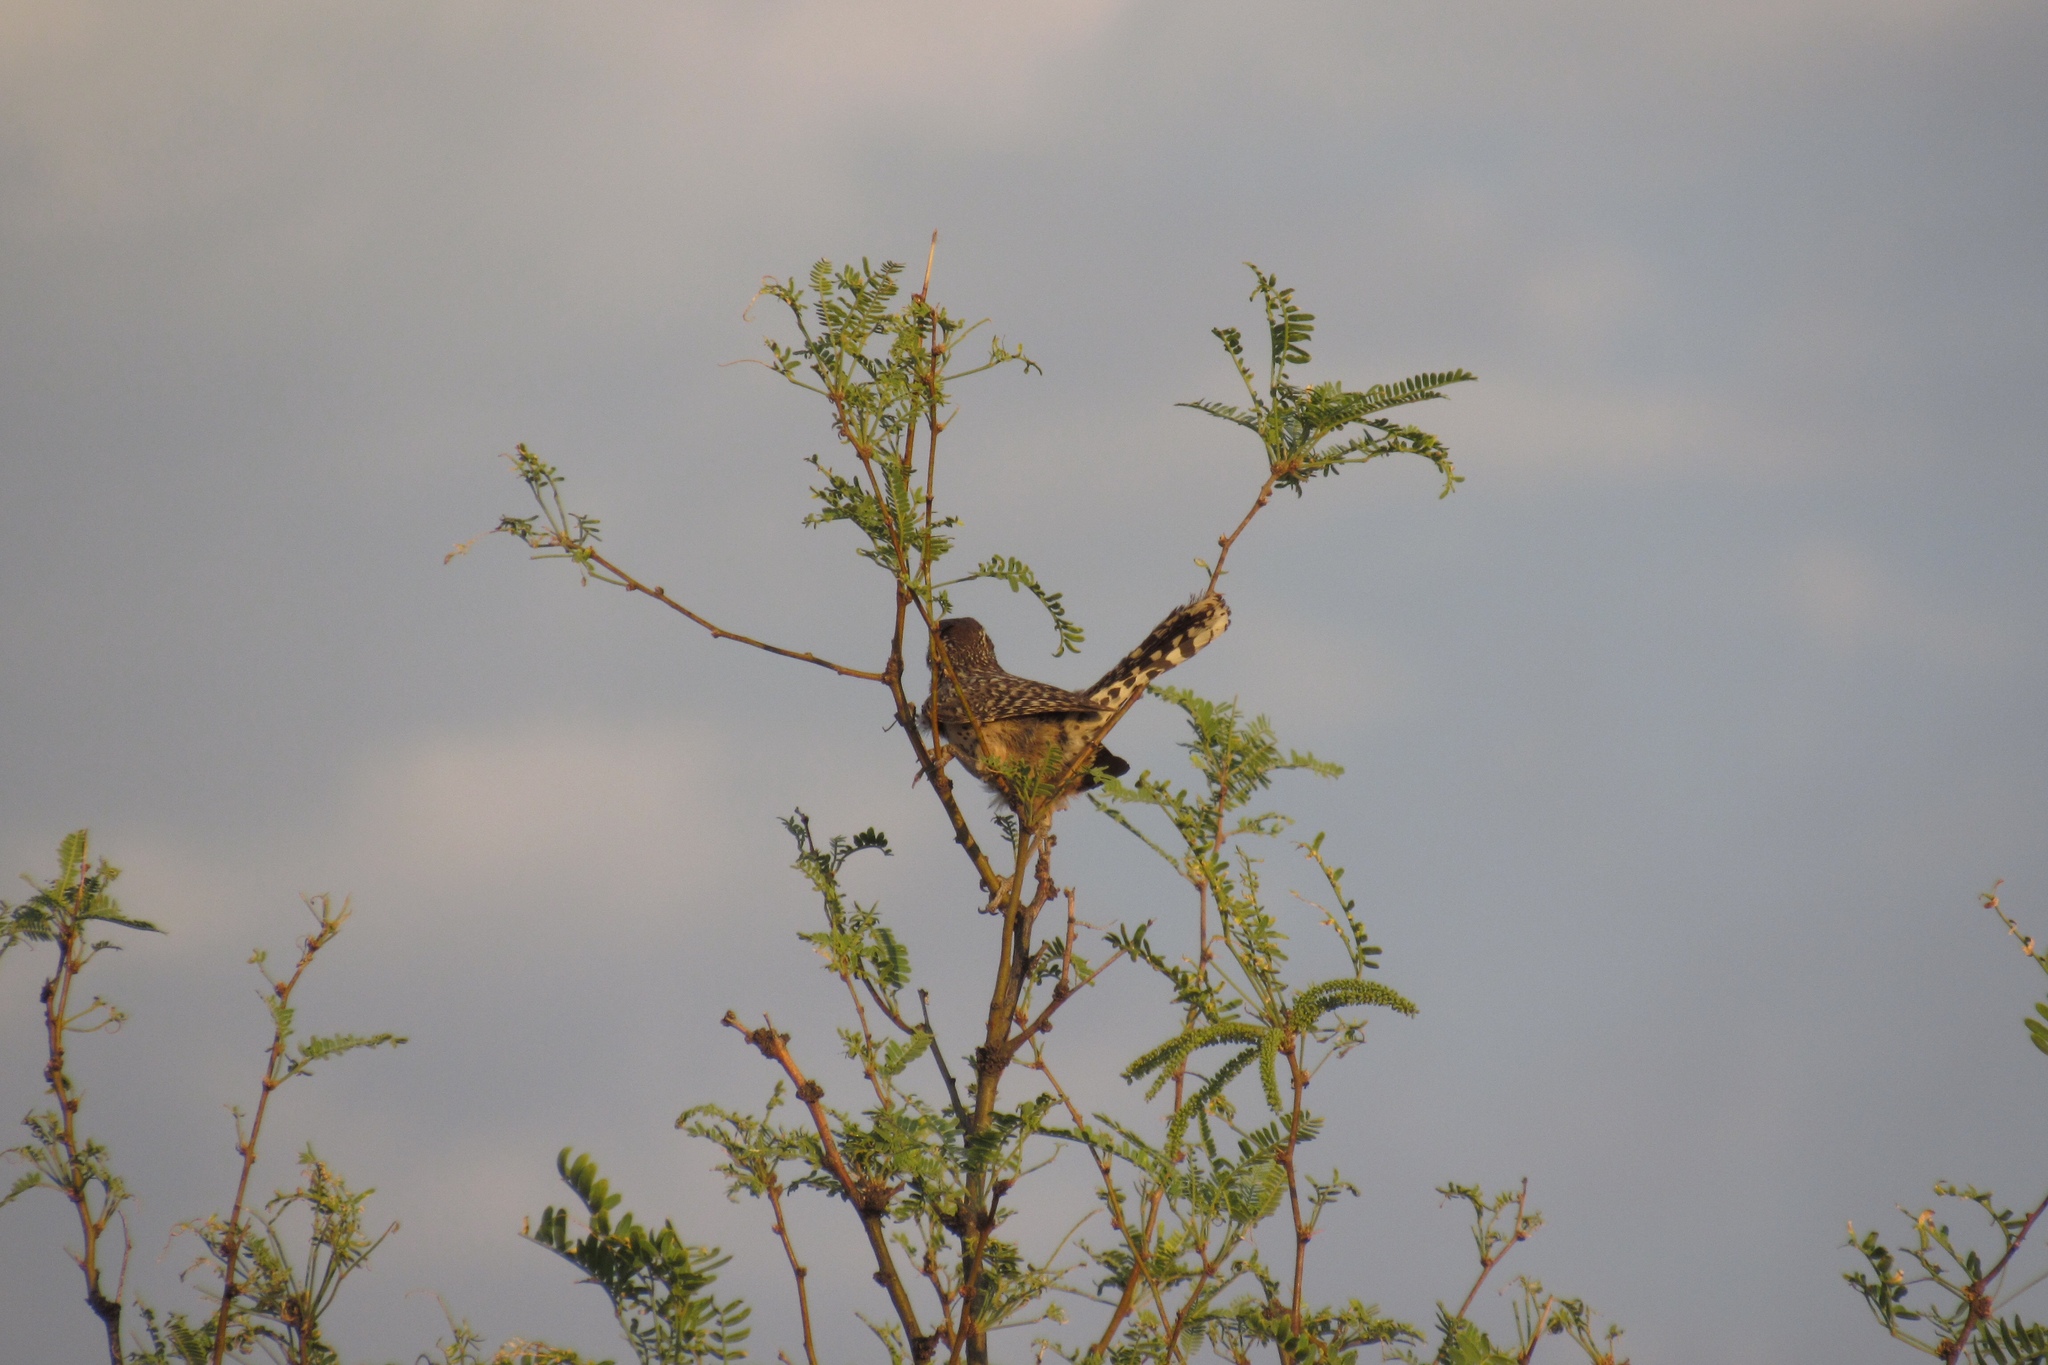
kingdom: Animalia
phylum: Chordata
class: Aves
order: Passeriformes
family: Troglodytidae
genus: Campylorhynchus
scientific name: Campylorhynchus brunneicapillus
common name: Cactus wren
